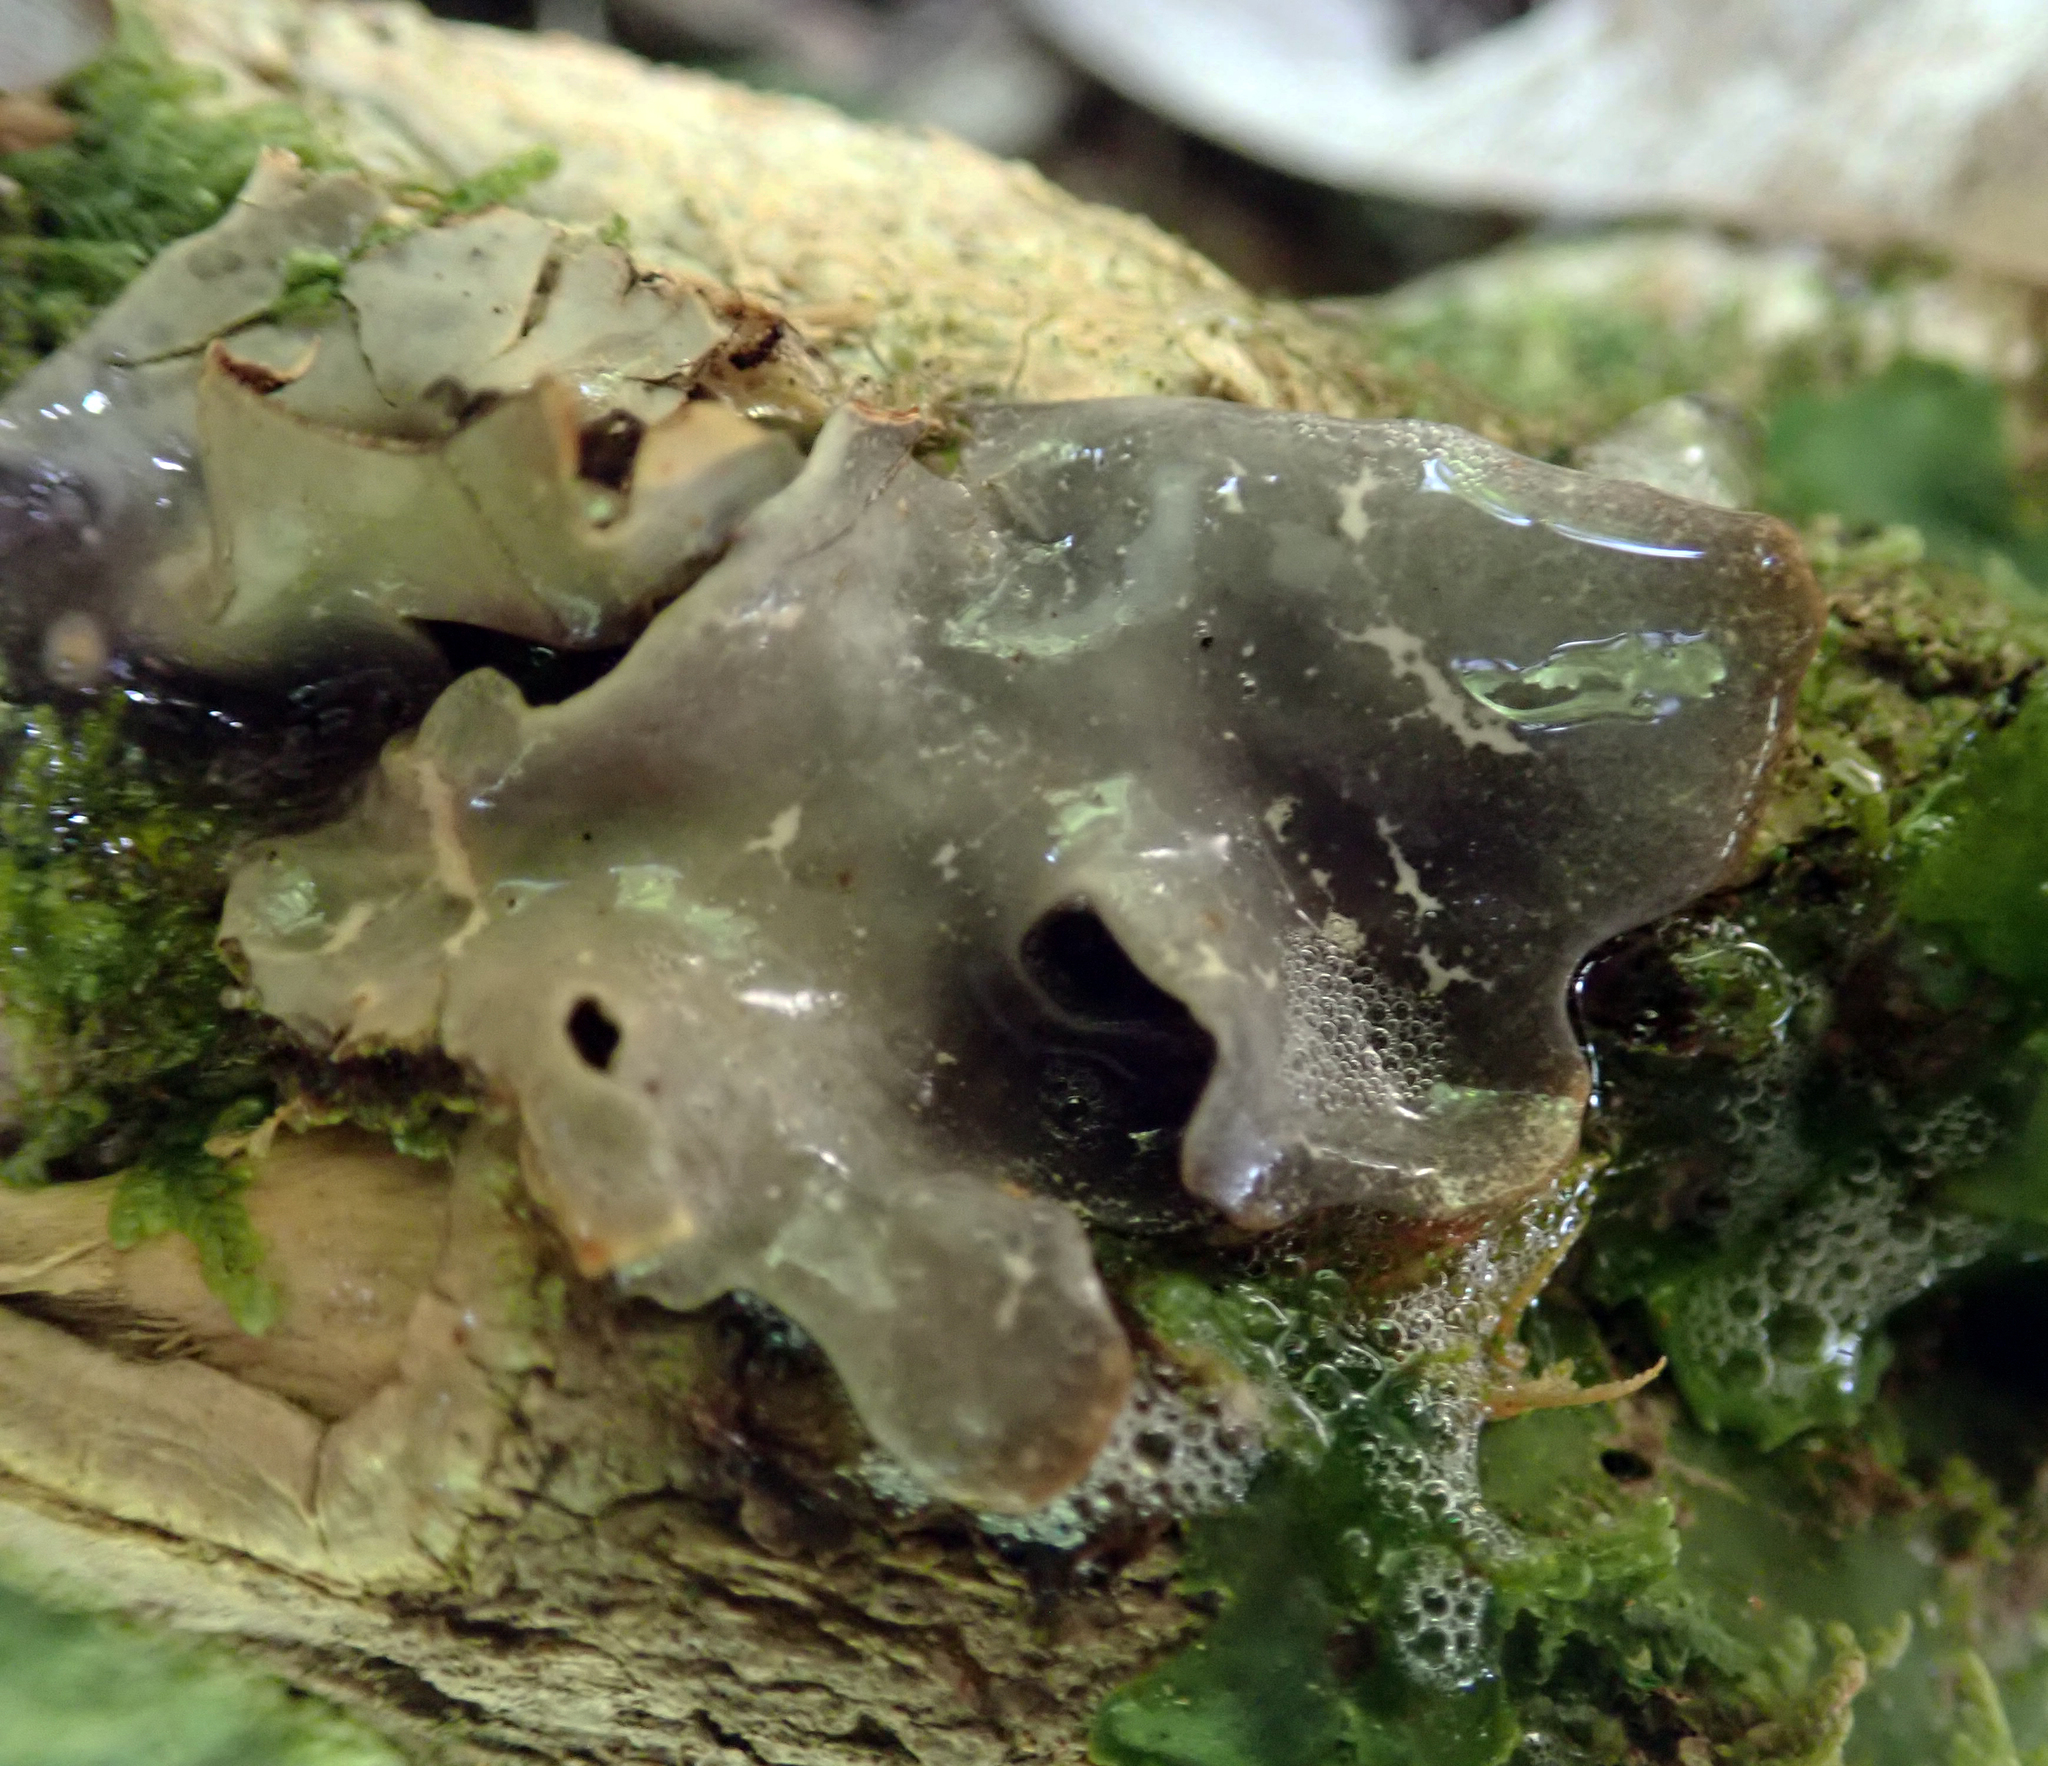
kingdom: Fungi
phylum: Ascomycota
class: Lecanoromycetes
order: Peltigerales
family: Lobariaceae
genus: Pseudocyphellaria
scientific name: Pseudocyphellaria cinnamomea
